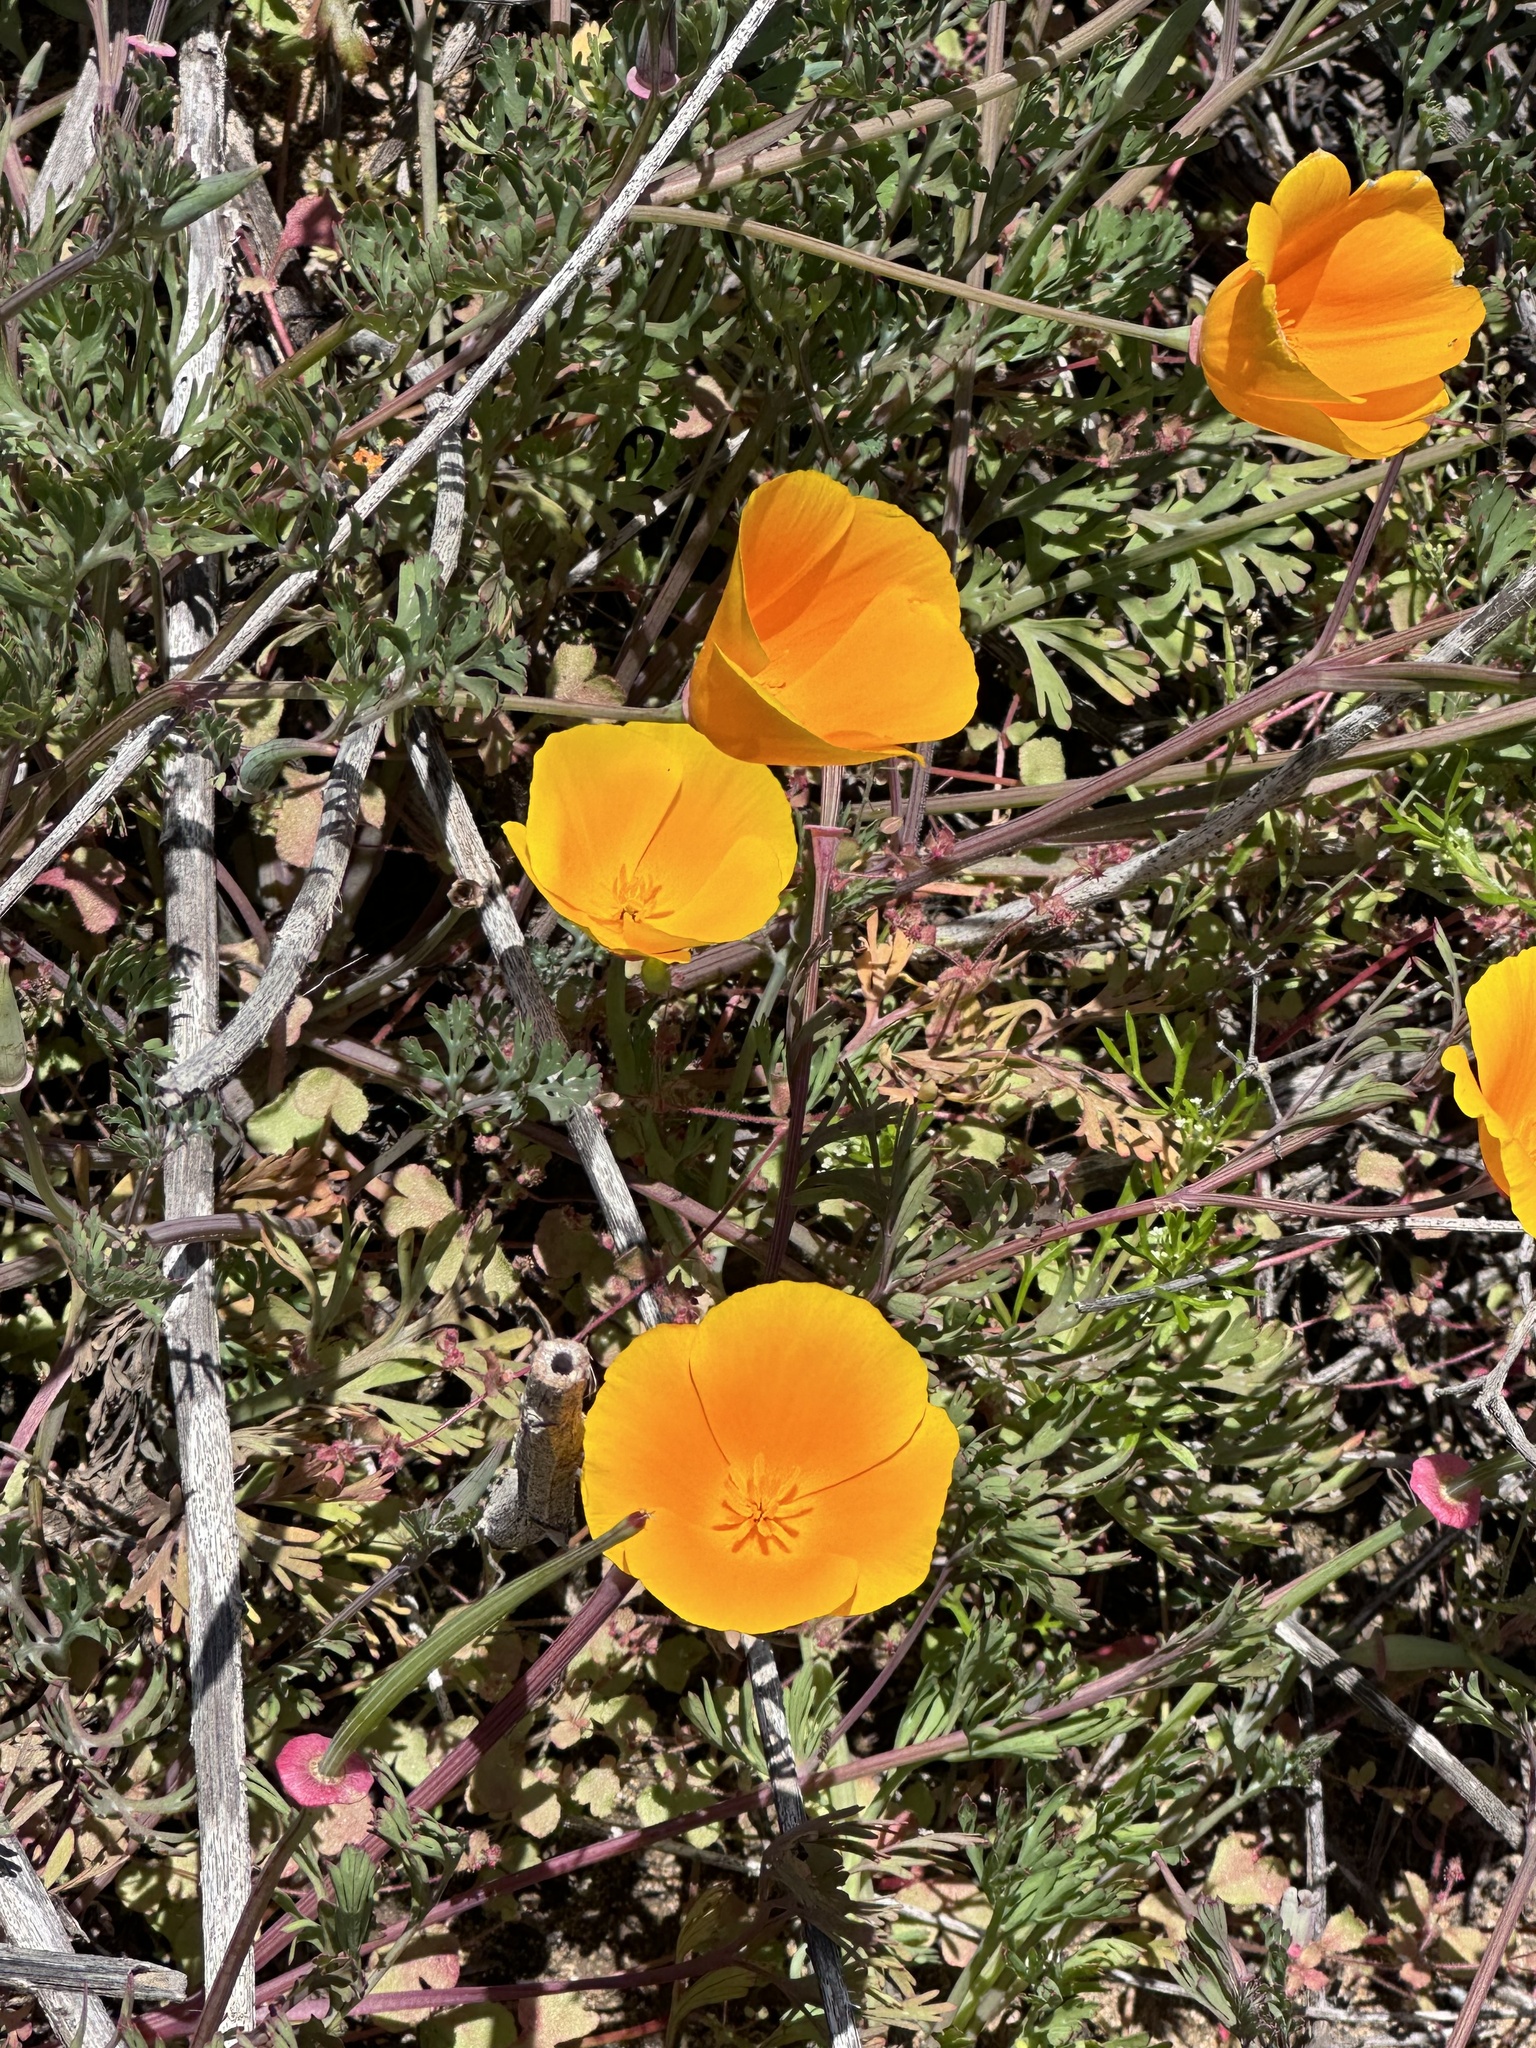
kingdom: Plantae
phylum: Tracheophyta
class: Magnoliopsida
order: Ranunculales
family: Papaveraceae
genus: Eschscholzia
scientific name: Eschscholzia californica
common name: California poppy
